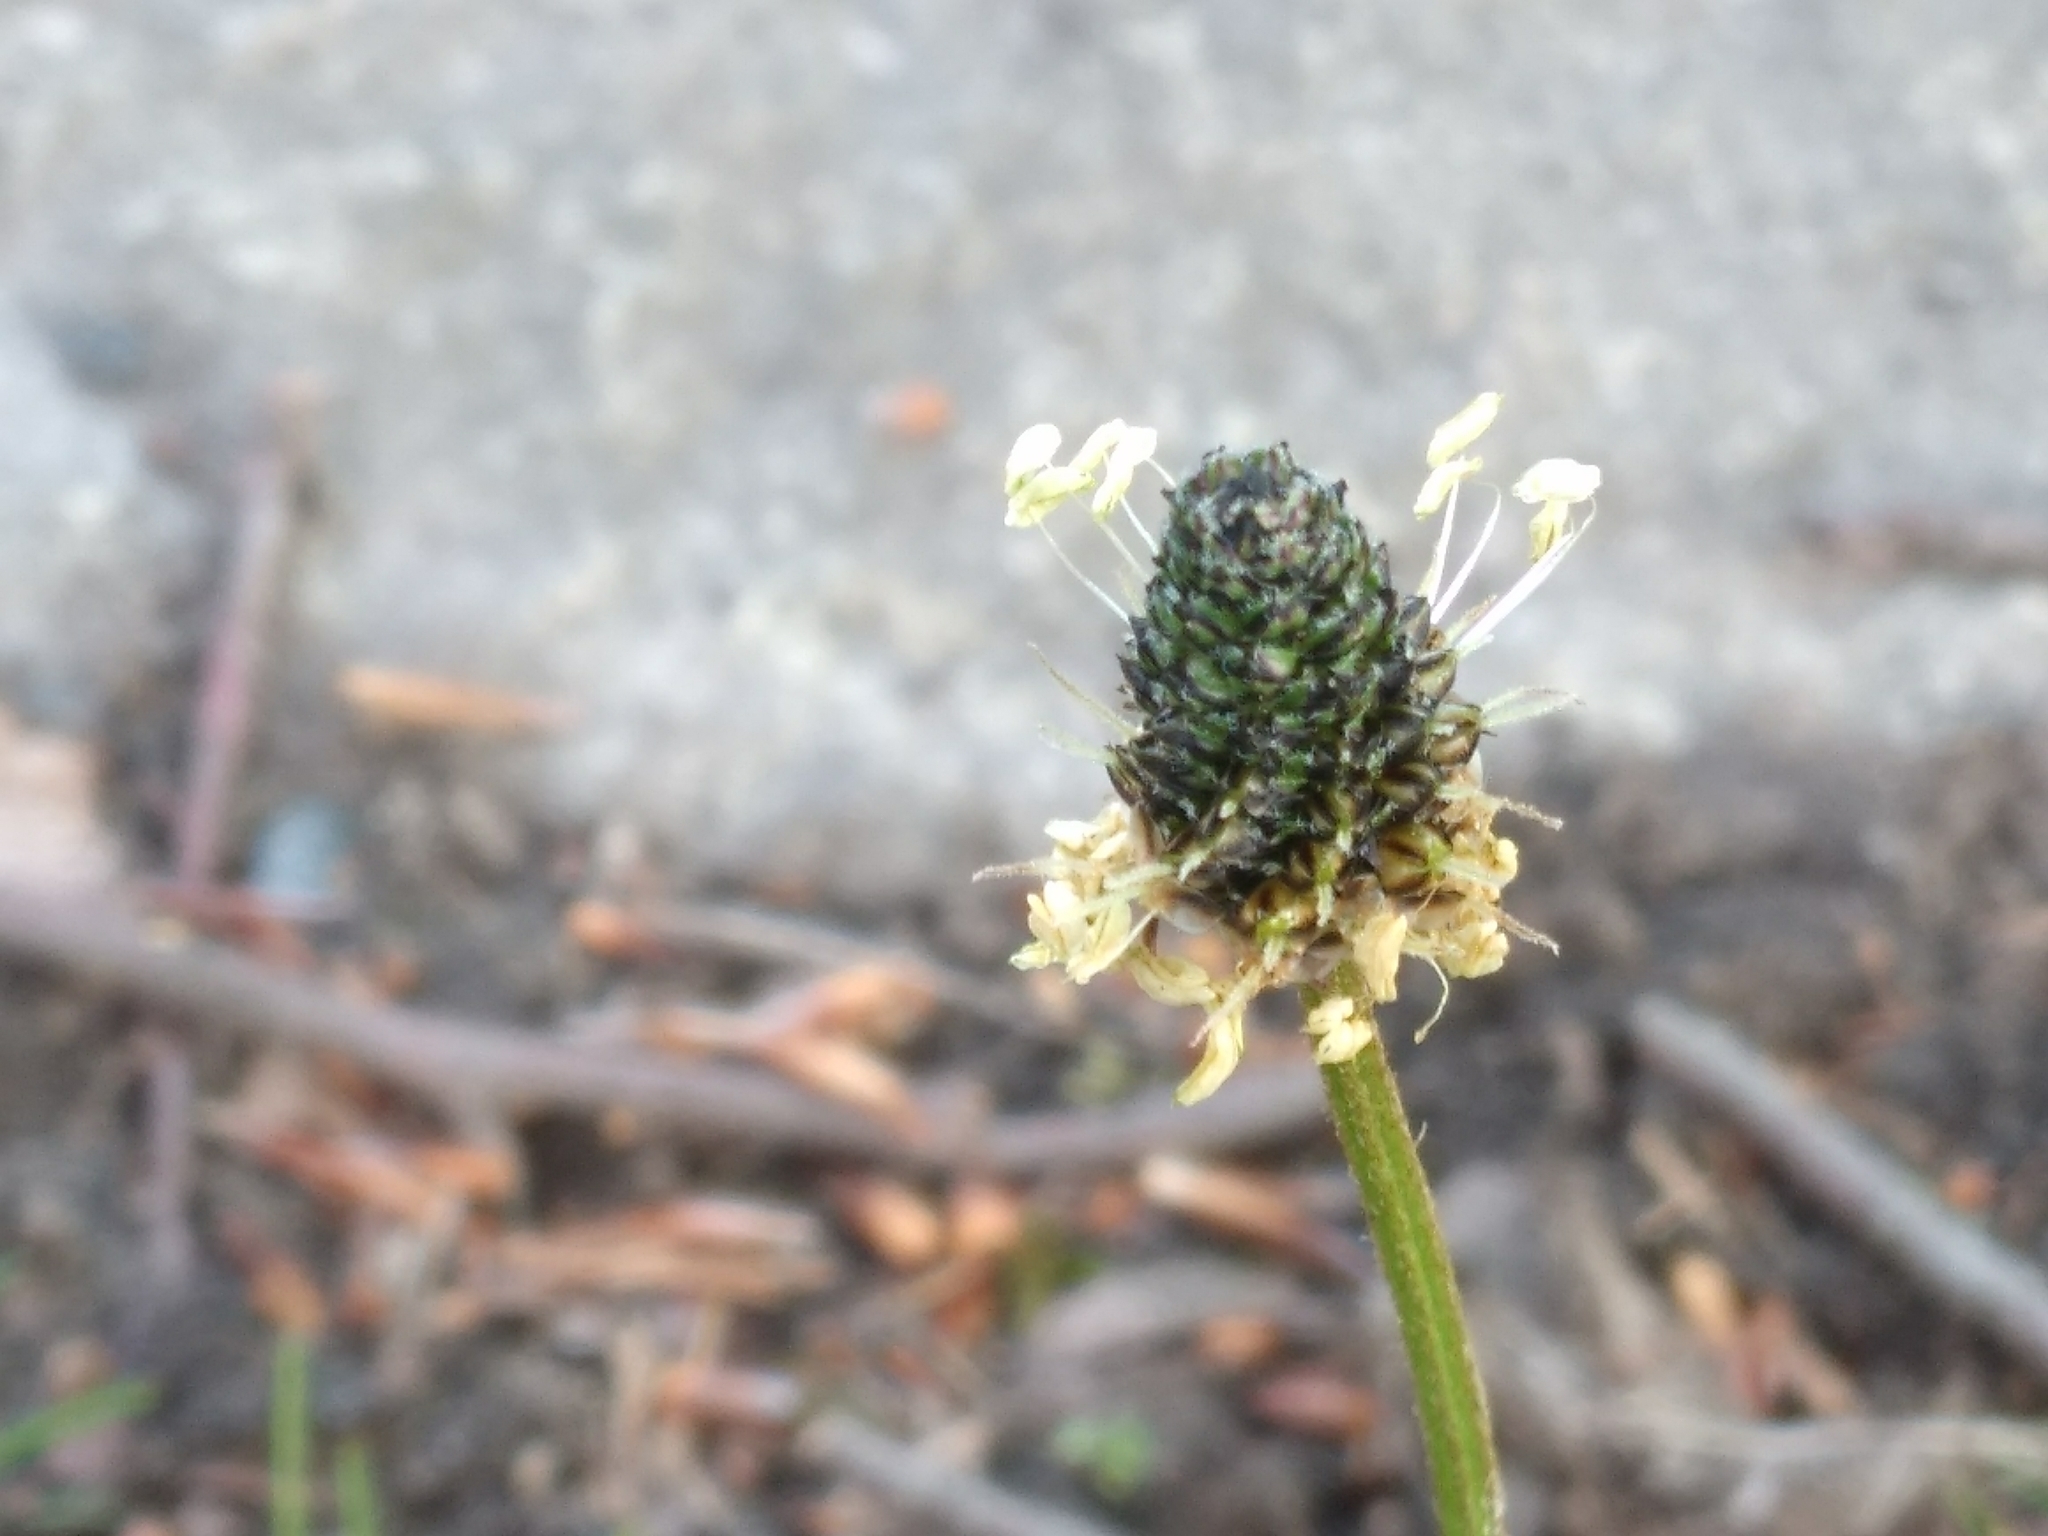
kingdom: Plantae
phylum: Tracheophyta
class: Magnoliopsida
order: Lamiales
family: Plantaginaceae
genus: Plantago
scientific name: Plantago lanceolata
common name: Ribwort plantain
